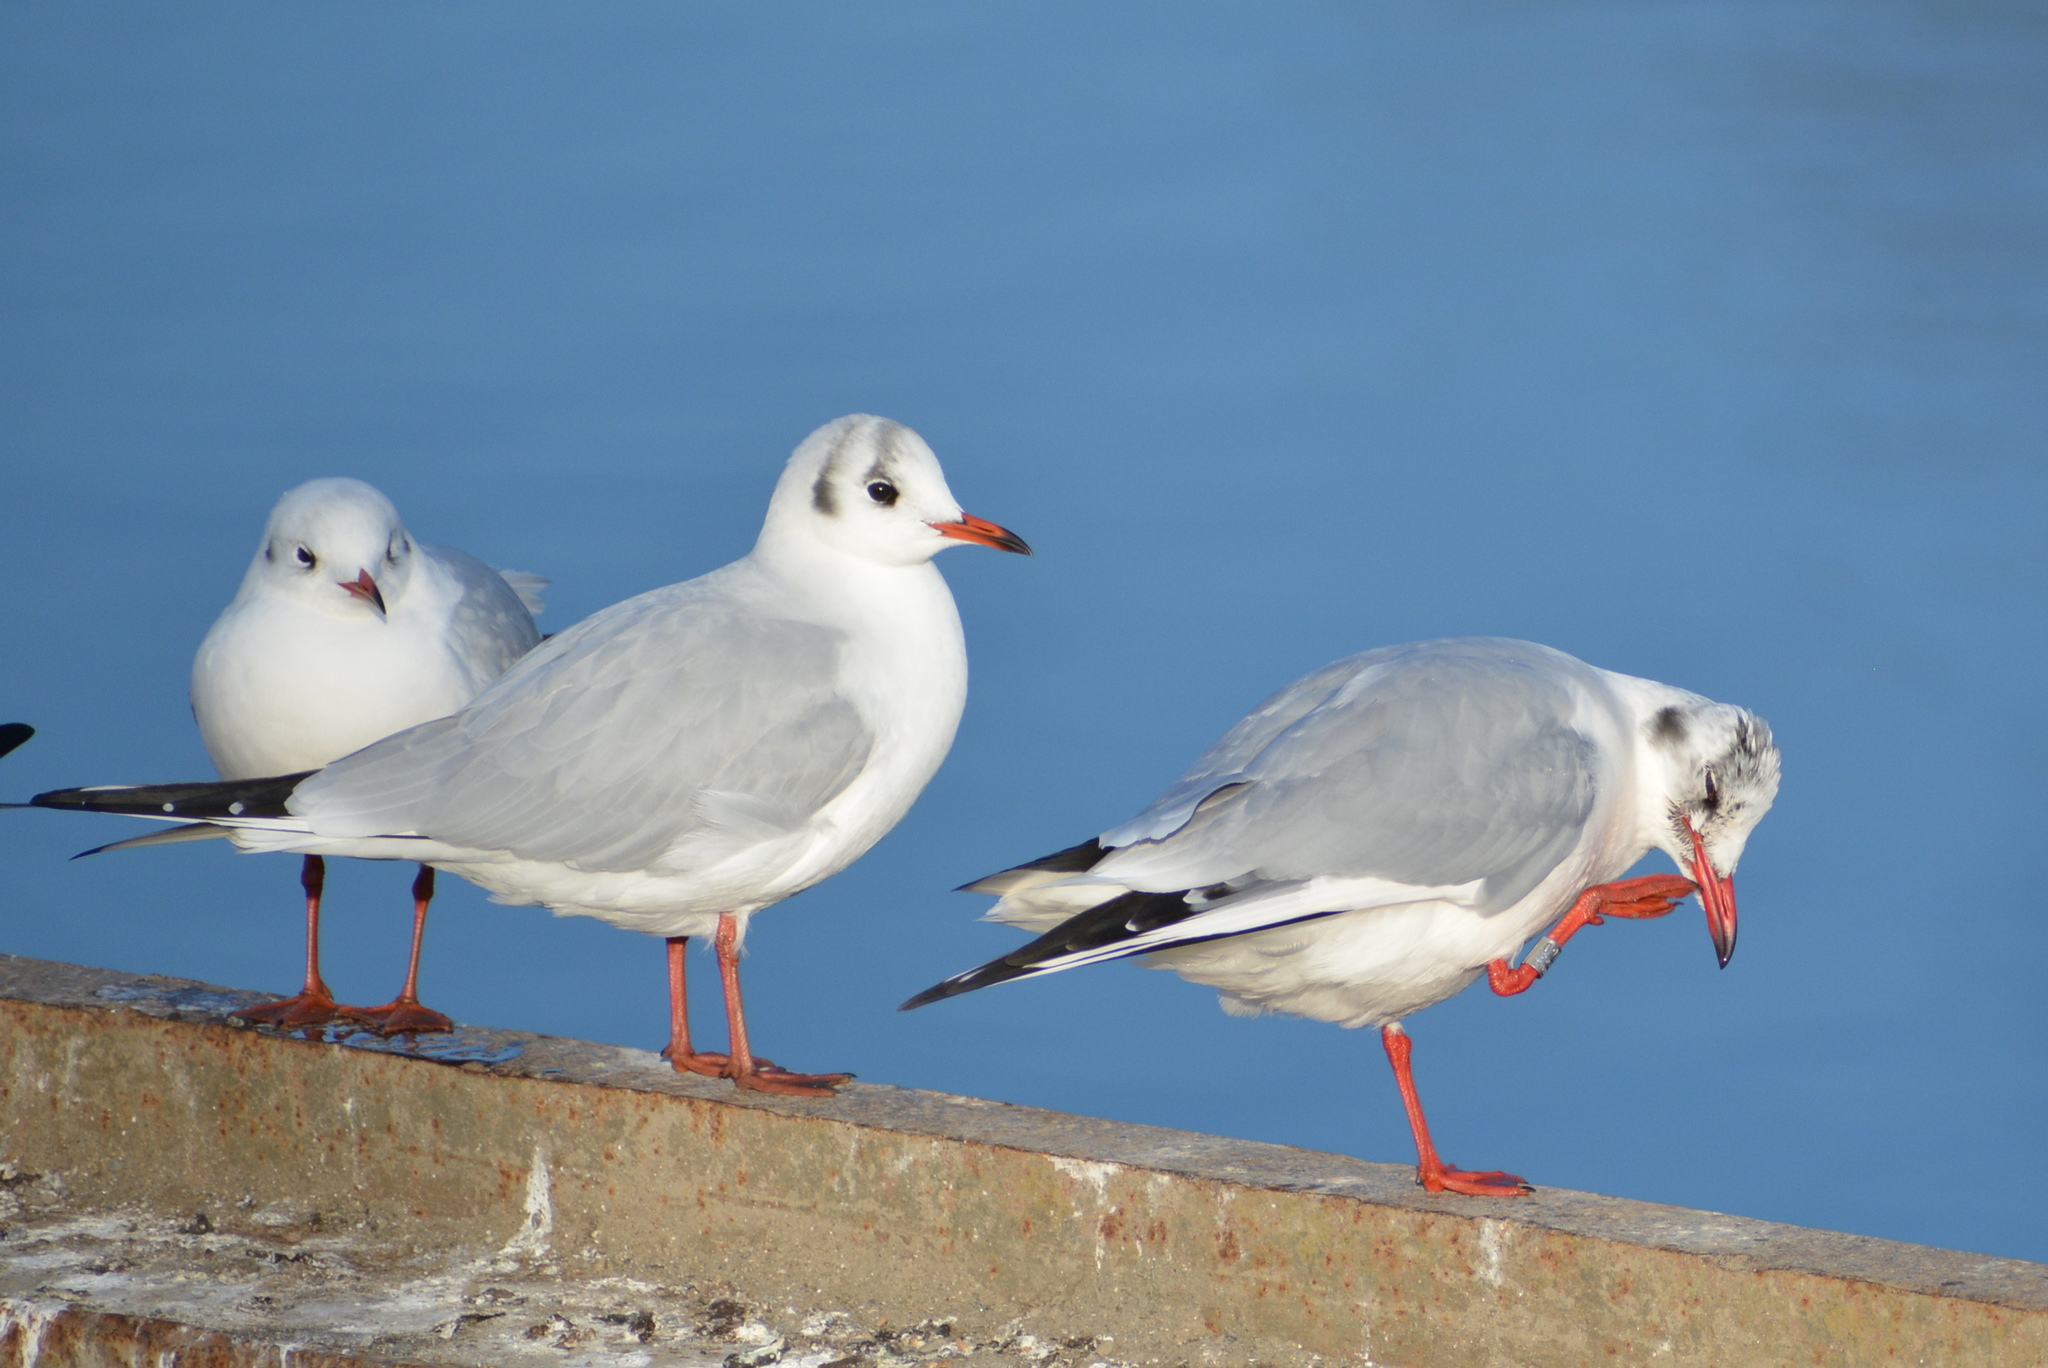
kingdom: Animalia
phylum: Chordata
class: Aves
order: Charadriiformes
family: Laridae
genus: Chroicocephalus
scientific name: Chroicocephalus ridibundus
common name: Black-headed gull
